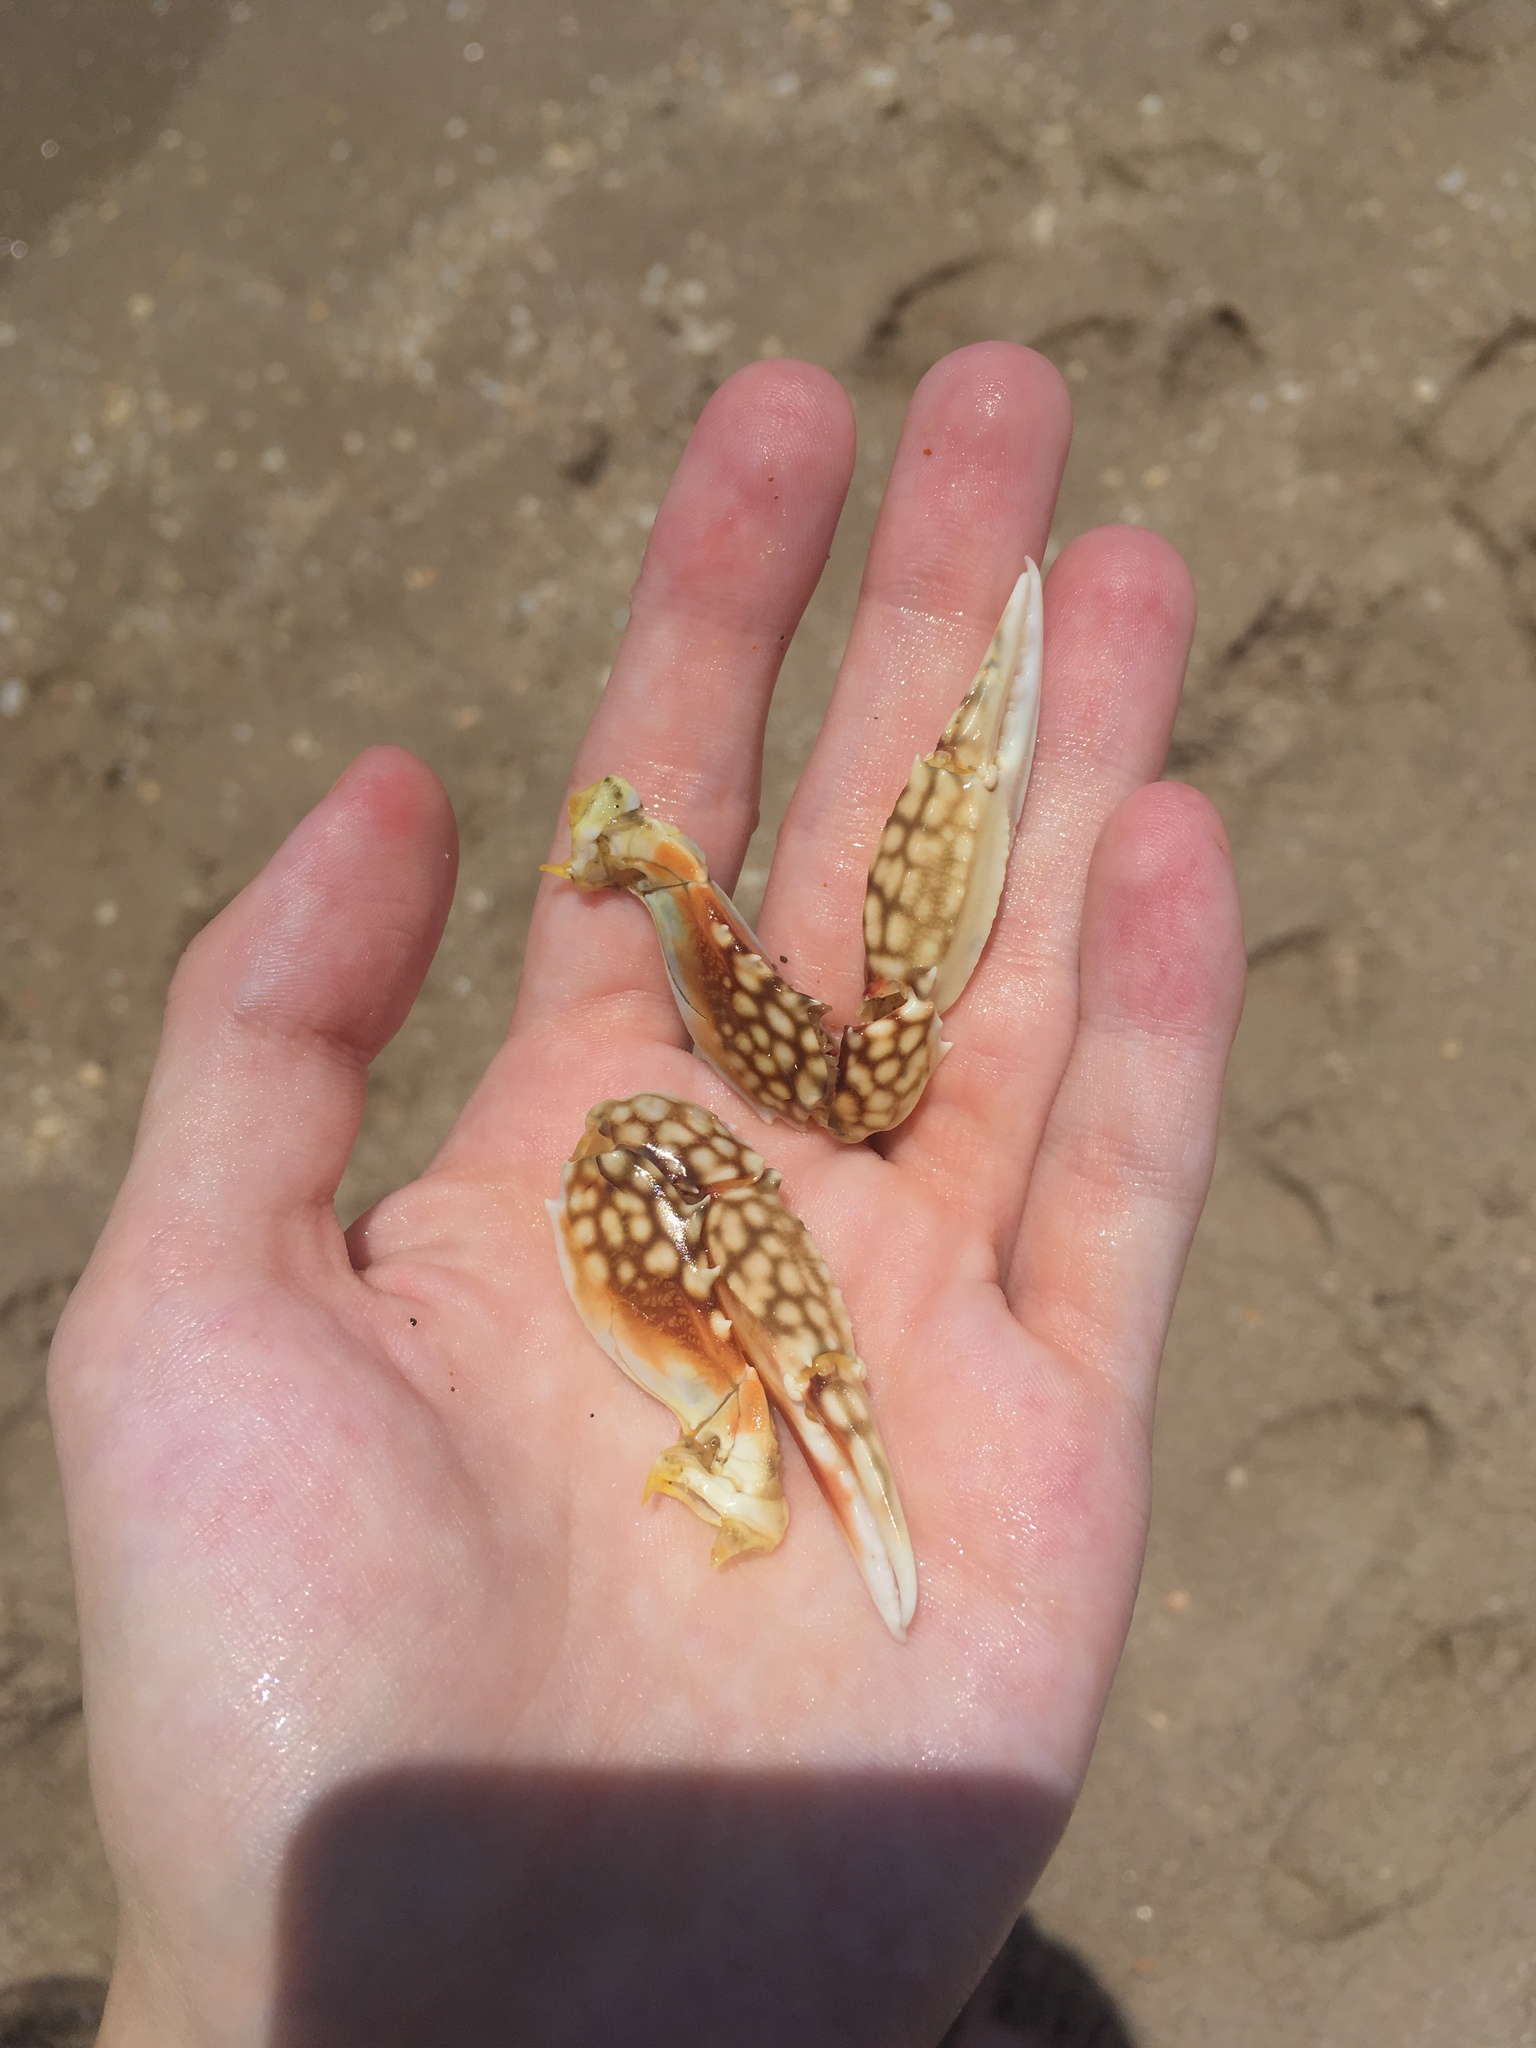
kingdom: Animalia
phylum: Arthropoda
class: Malacostraca
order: Decapoda
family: Portunidae
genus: Arenaeus
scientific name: Arenaeus cribrarius
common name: Speckled crab
